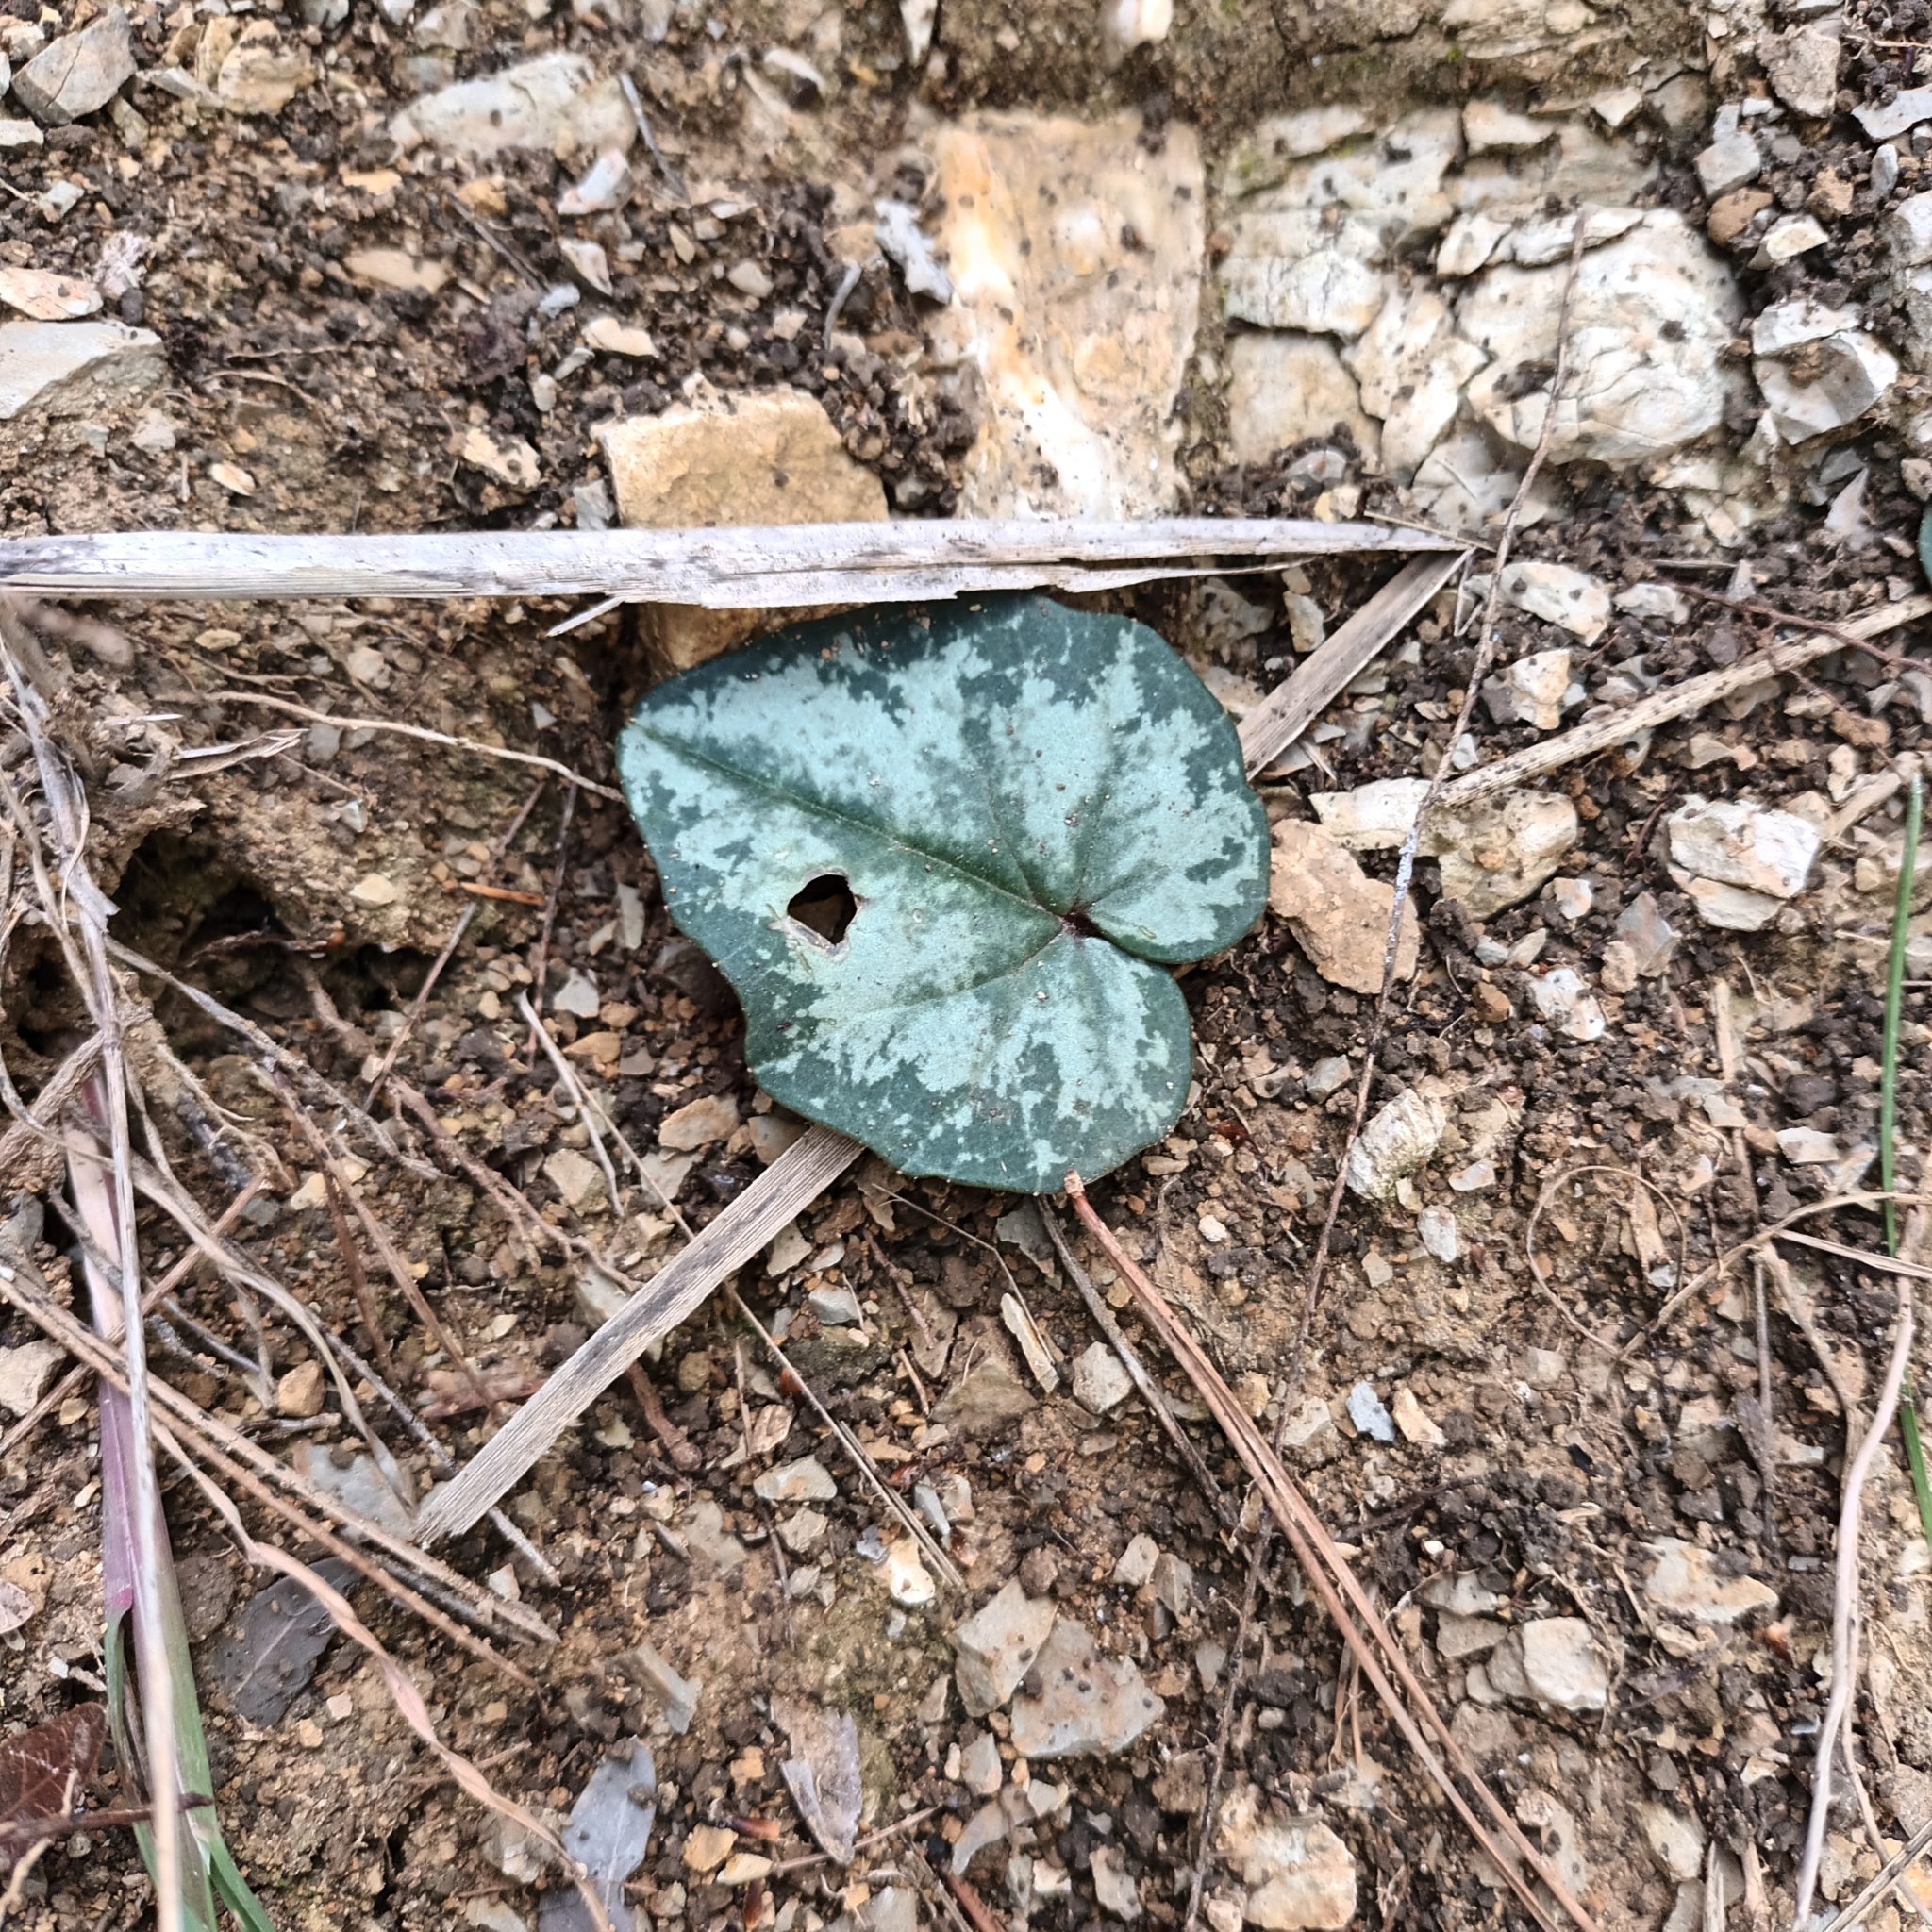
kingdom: Plantae
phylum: Tracheophyta
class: Magnoliopsida
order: Ericales
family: Primulaceae
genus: Cyclamen
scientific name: Cyclamen balearicum
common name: Majorca cyclamen
